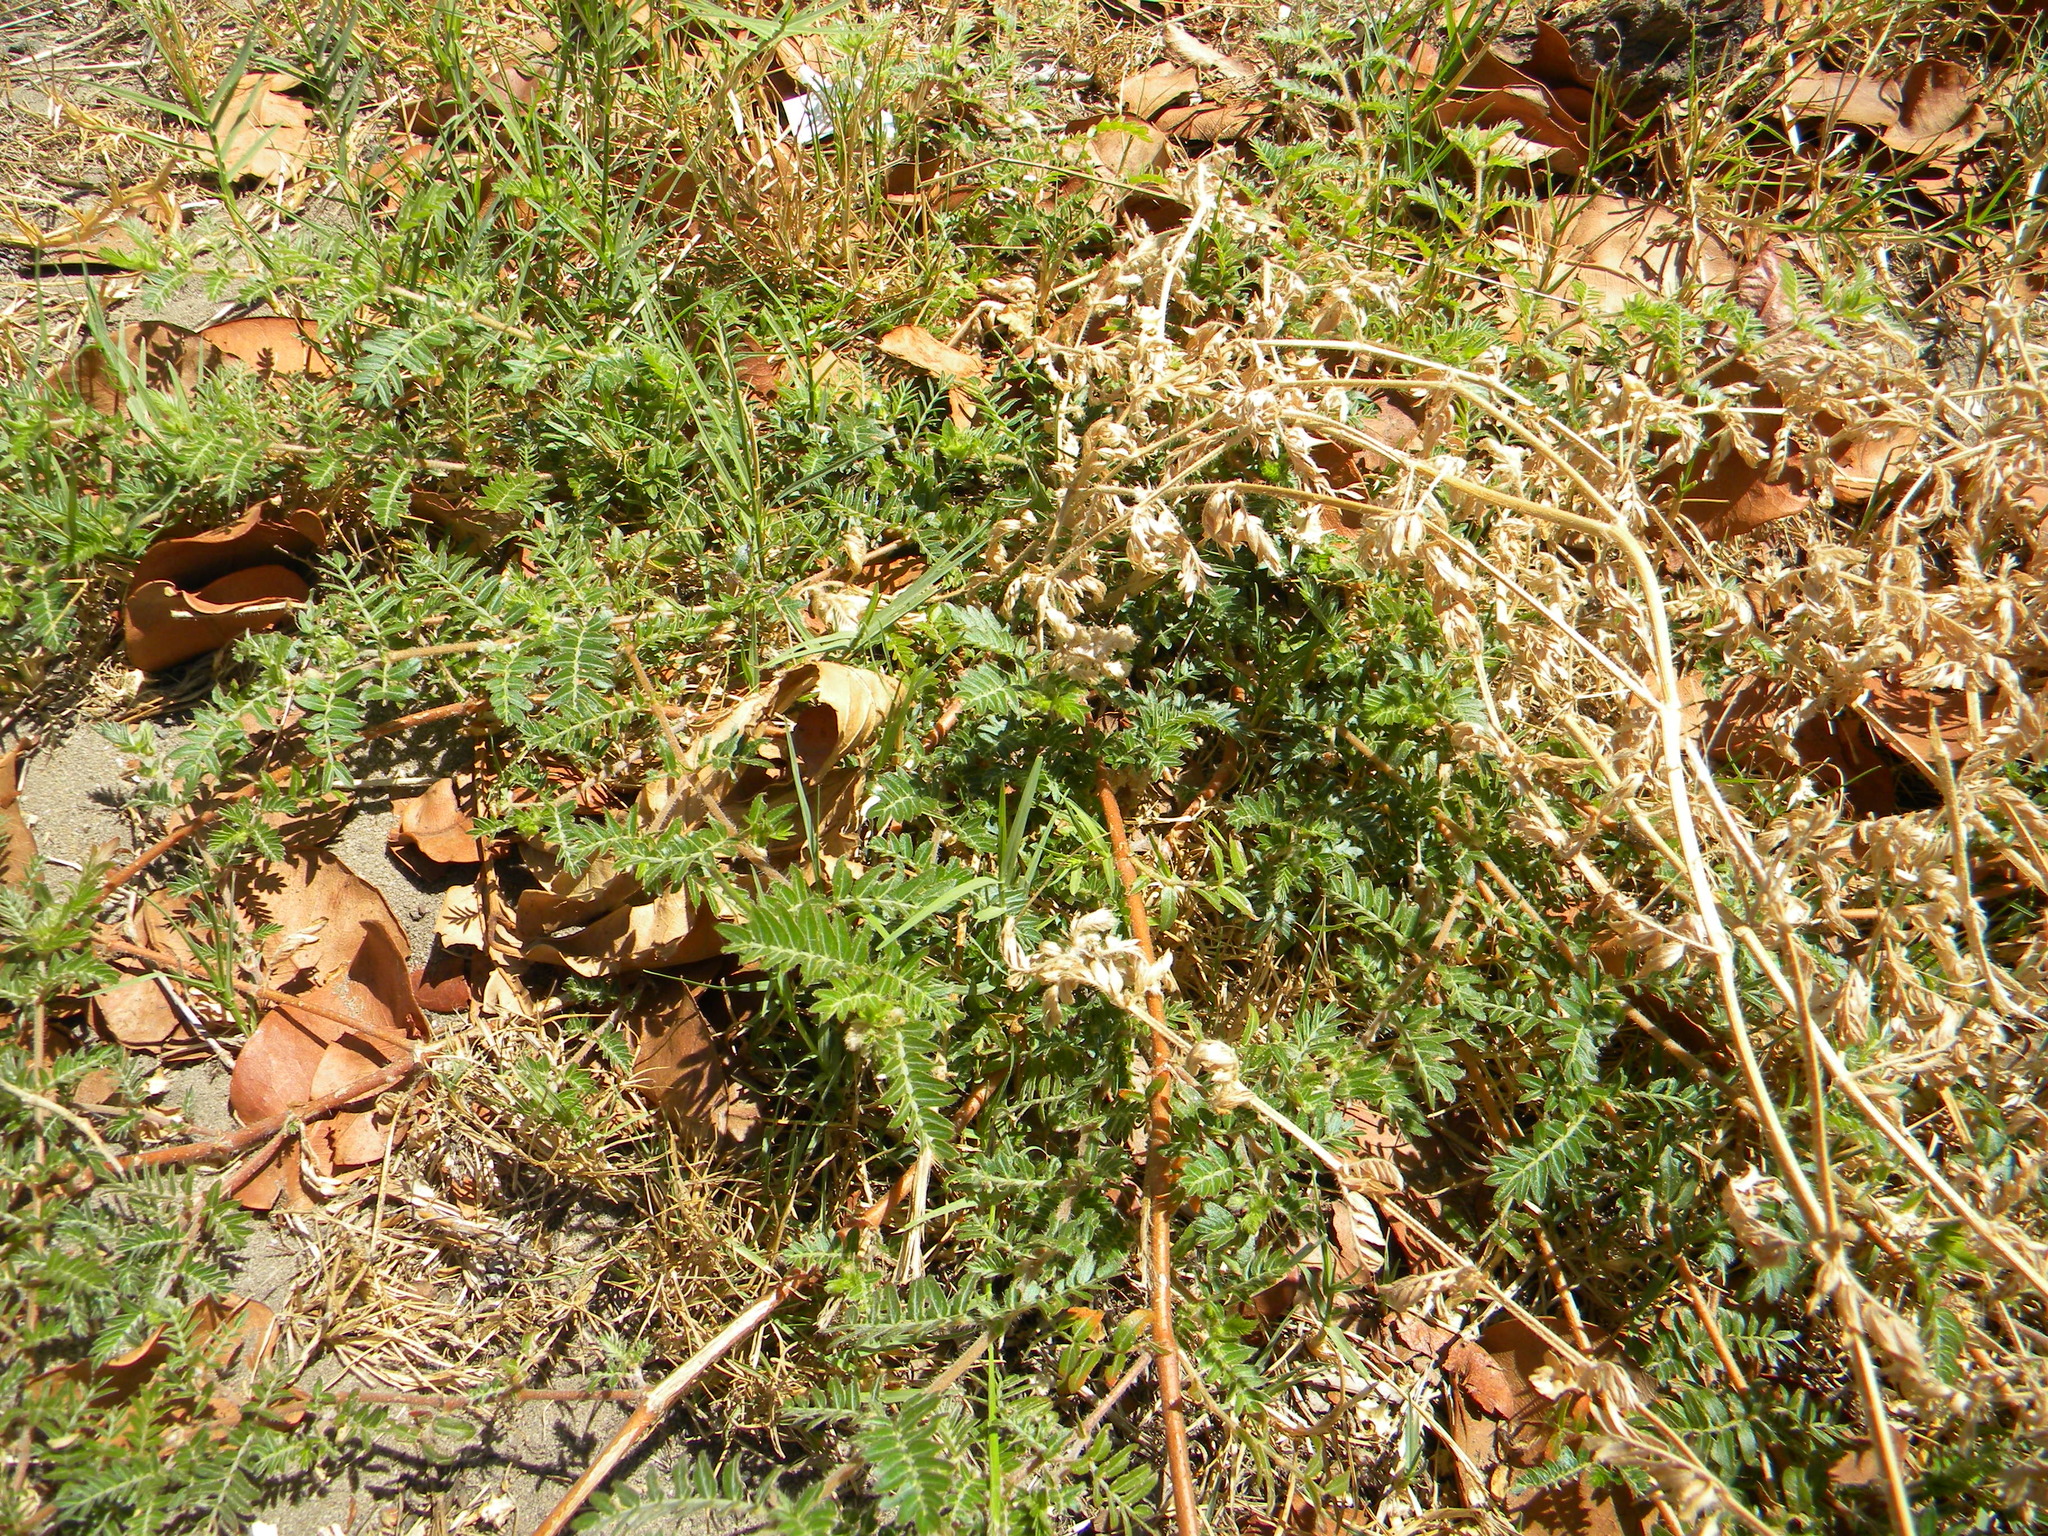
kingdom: Plantae
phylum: Tracheophyta
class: Magnoliopsida
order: Zygophyllales
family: Zygophyllaceae
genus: Tribulus
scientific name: Tribulus terrestris
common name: Puncturevine
